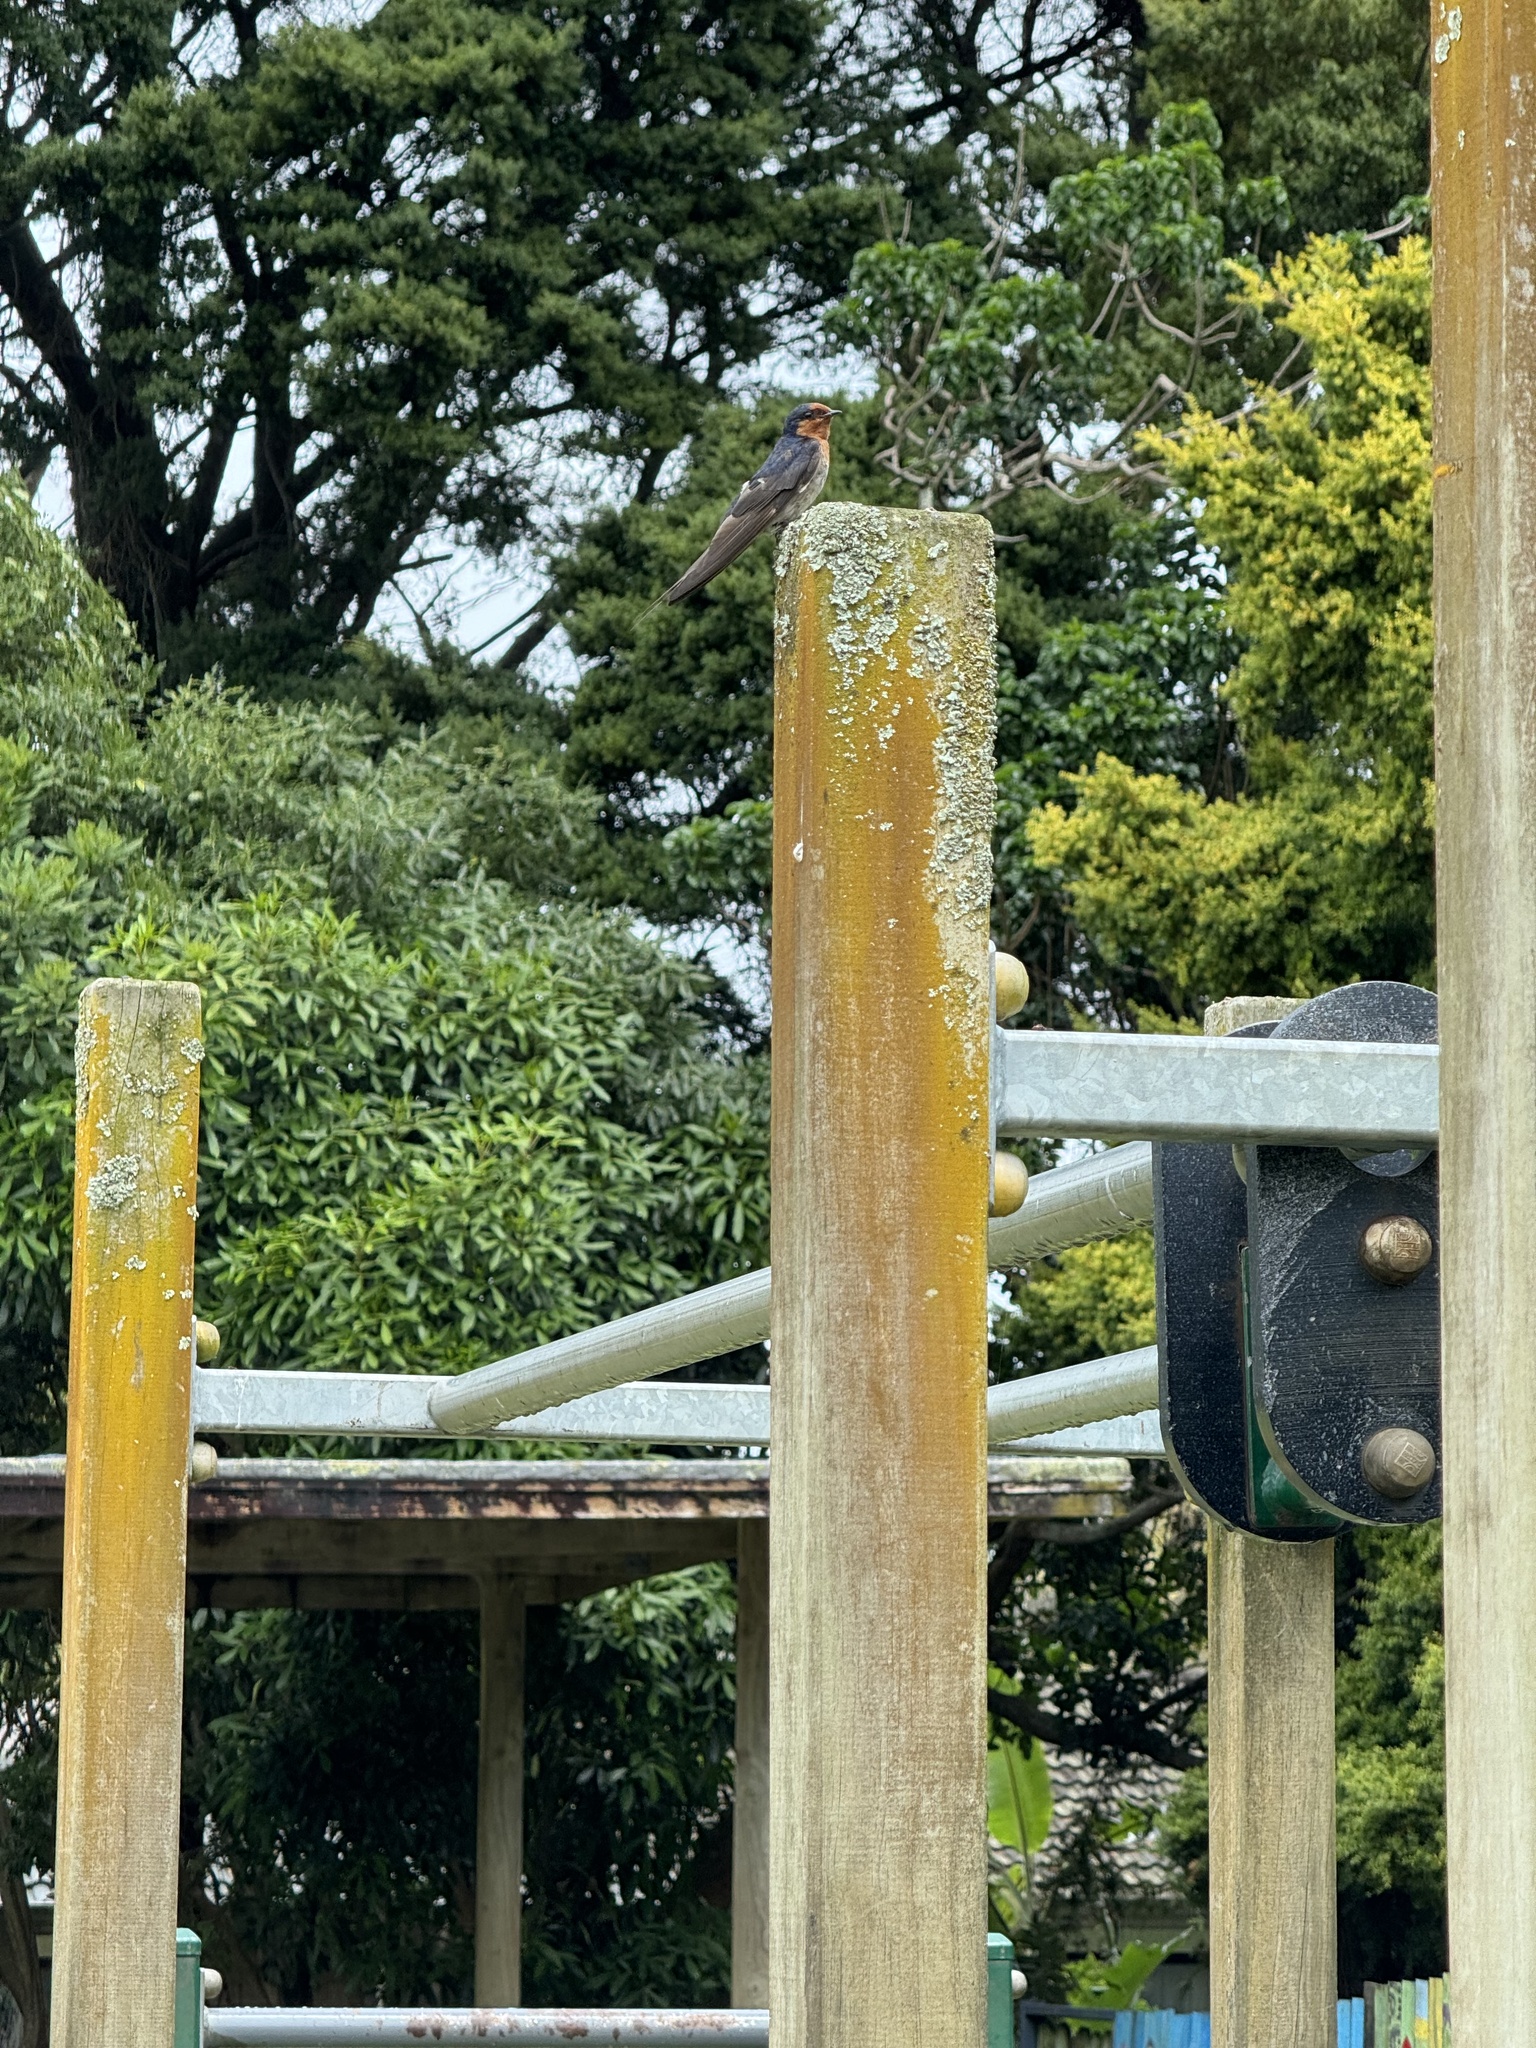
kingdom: Animalia
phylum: Chordata
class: Aves
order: Passeriformes
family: Hirundinidae
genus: Hirundo
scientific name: Hirundo neoxena
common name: Welcome swallow
